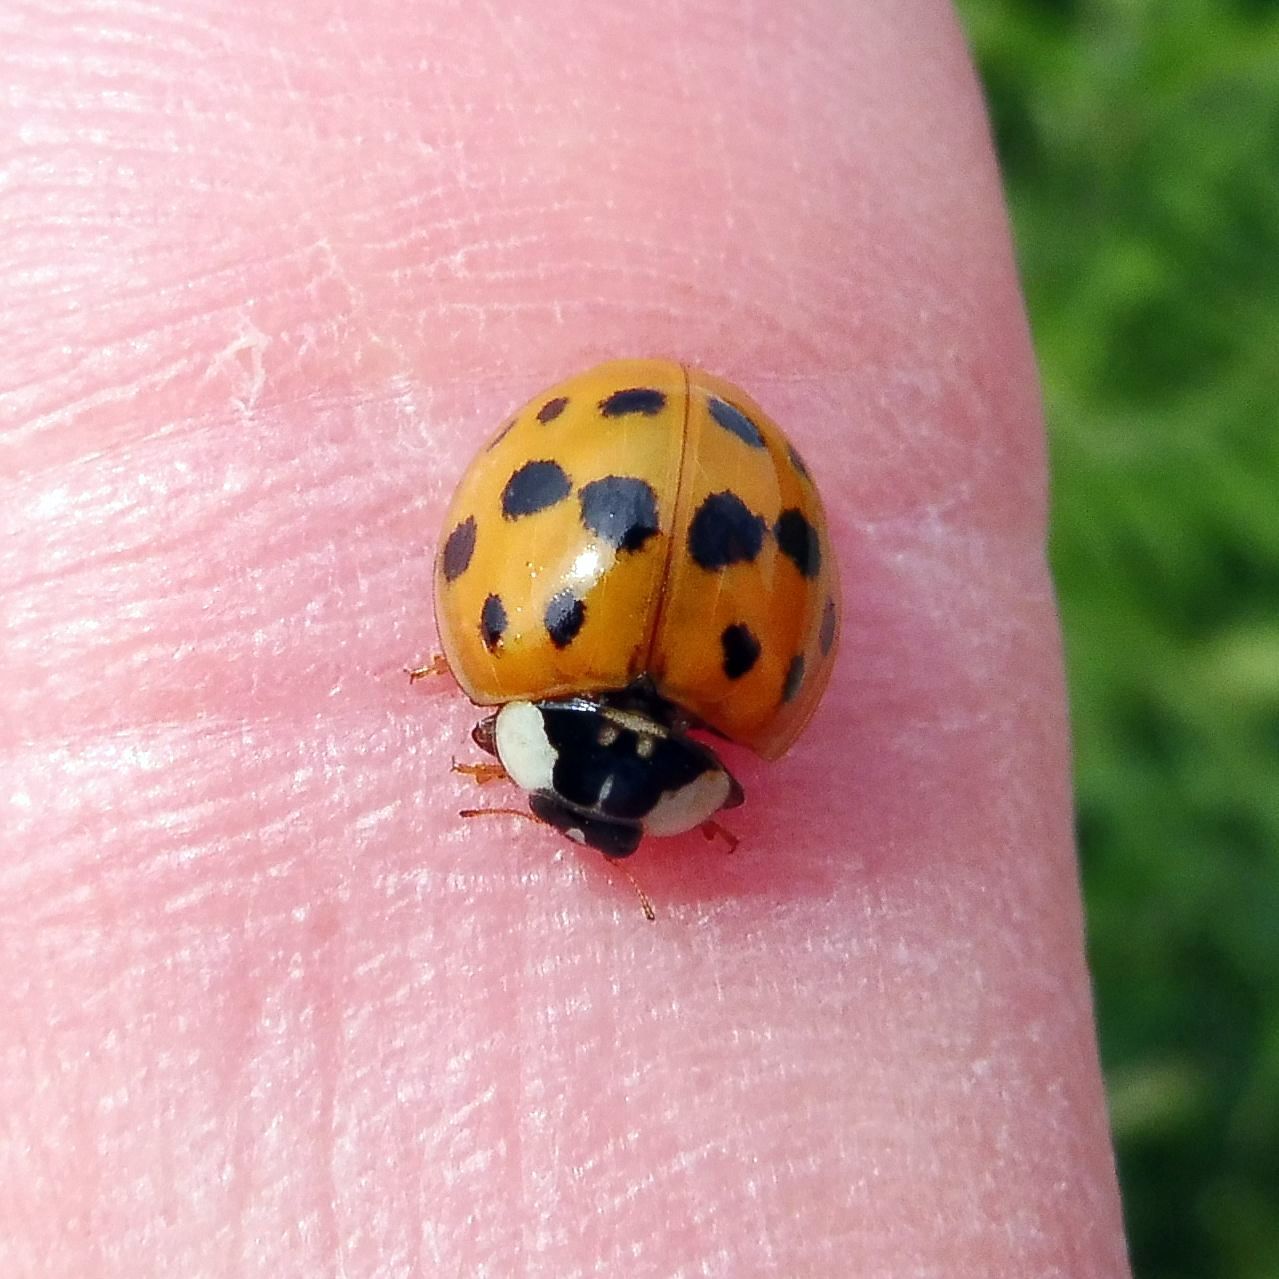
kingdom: Animalia
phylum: Arthropoda
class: Insecta
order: Coleoptera
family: Coccinellidae
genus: Harmonia
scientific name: Harmonia axyridis
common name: Harlequin ladybird
